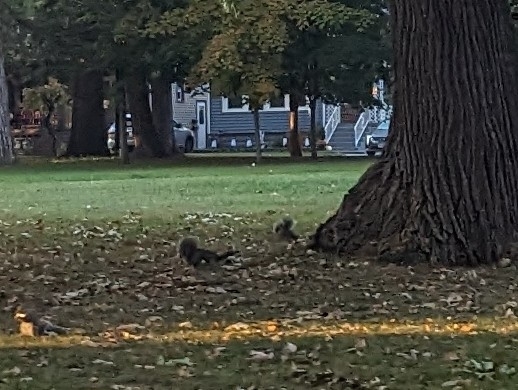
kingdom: Animalia
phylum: Chordata
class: Mammalia
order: Rodentia
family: Sciuridae
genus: Sciurus
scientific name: Sciurus carolinensis
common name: Eastern gray squirrel
